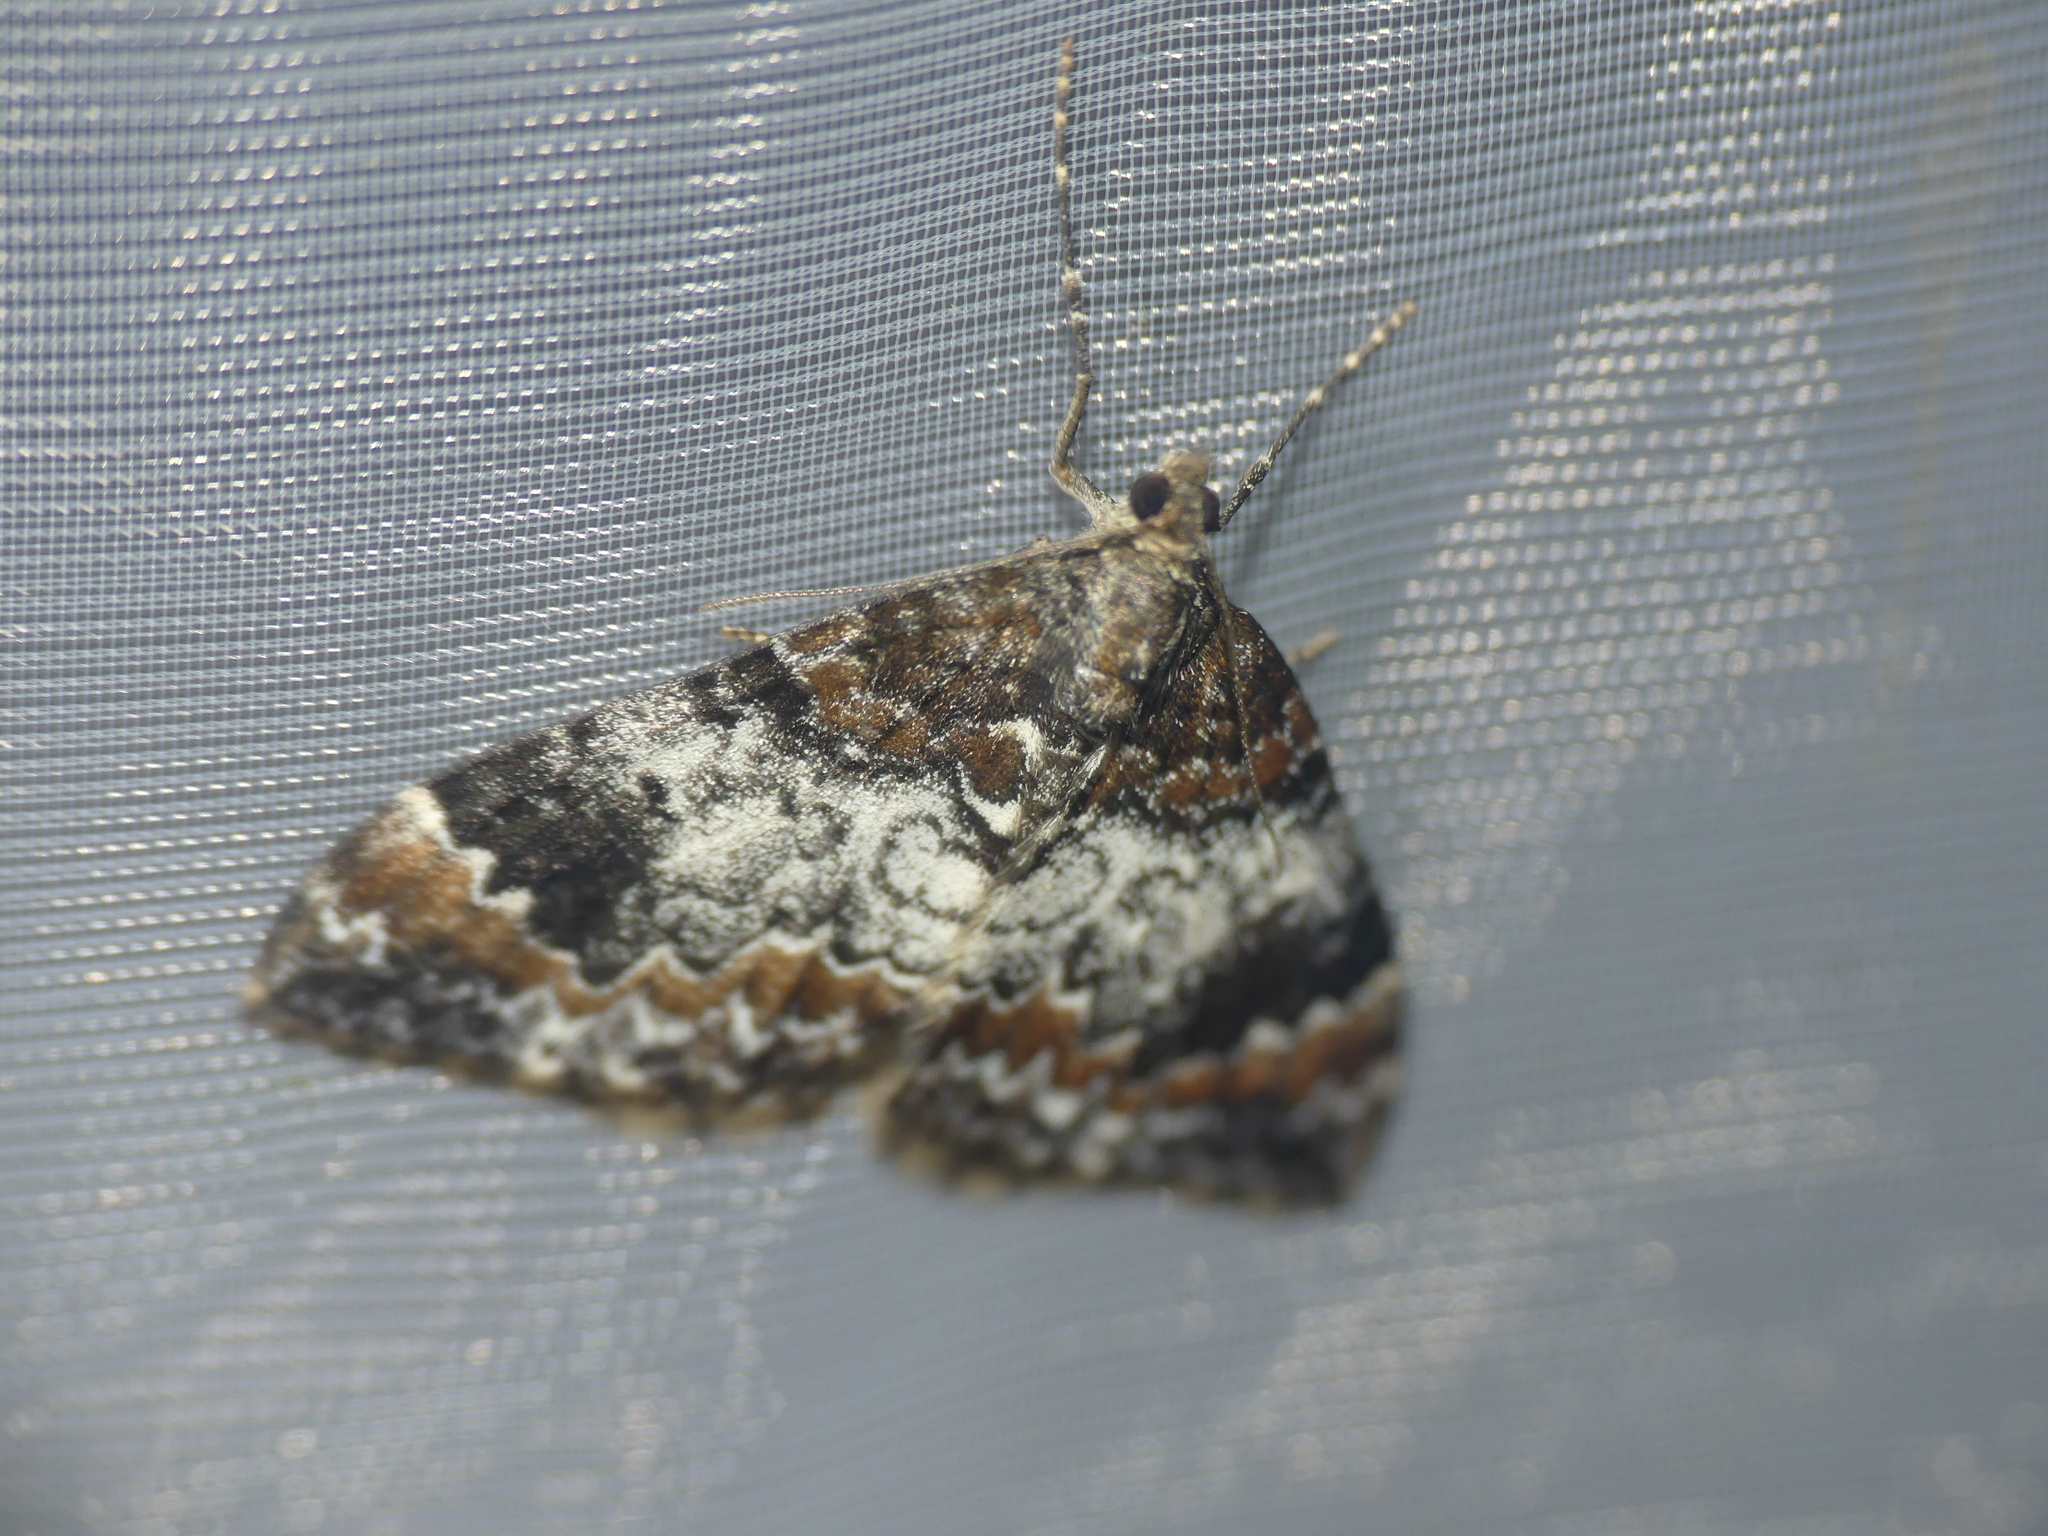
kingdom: Animalia
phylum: Arthropoda
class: Insecta
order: Lepidoptera
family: Geometridae
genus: Dysstroma
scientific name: Dysstroma truncata
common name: Common marbled carpet
